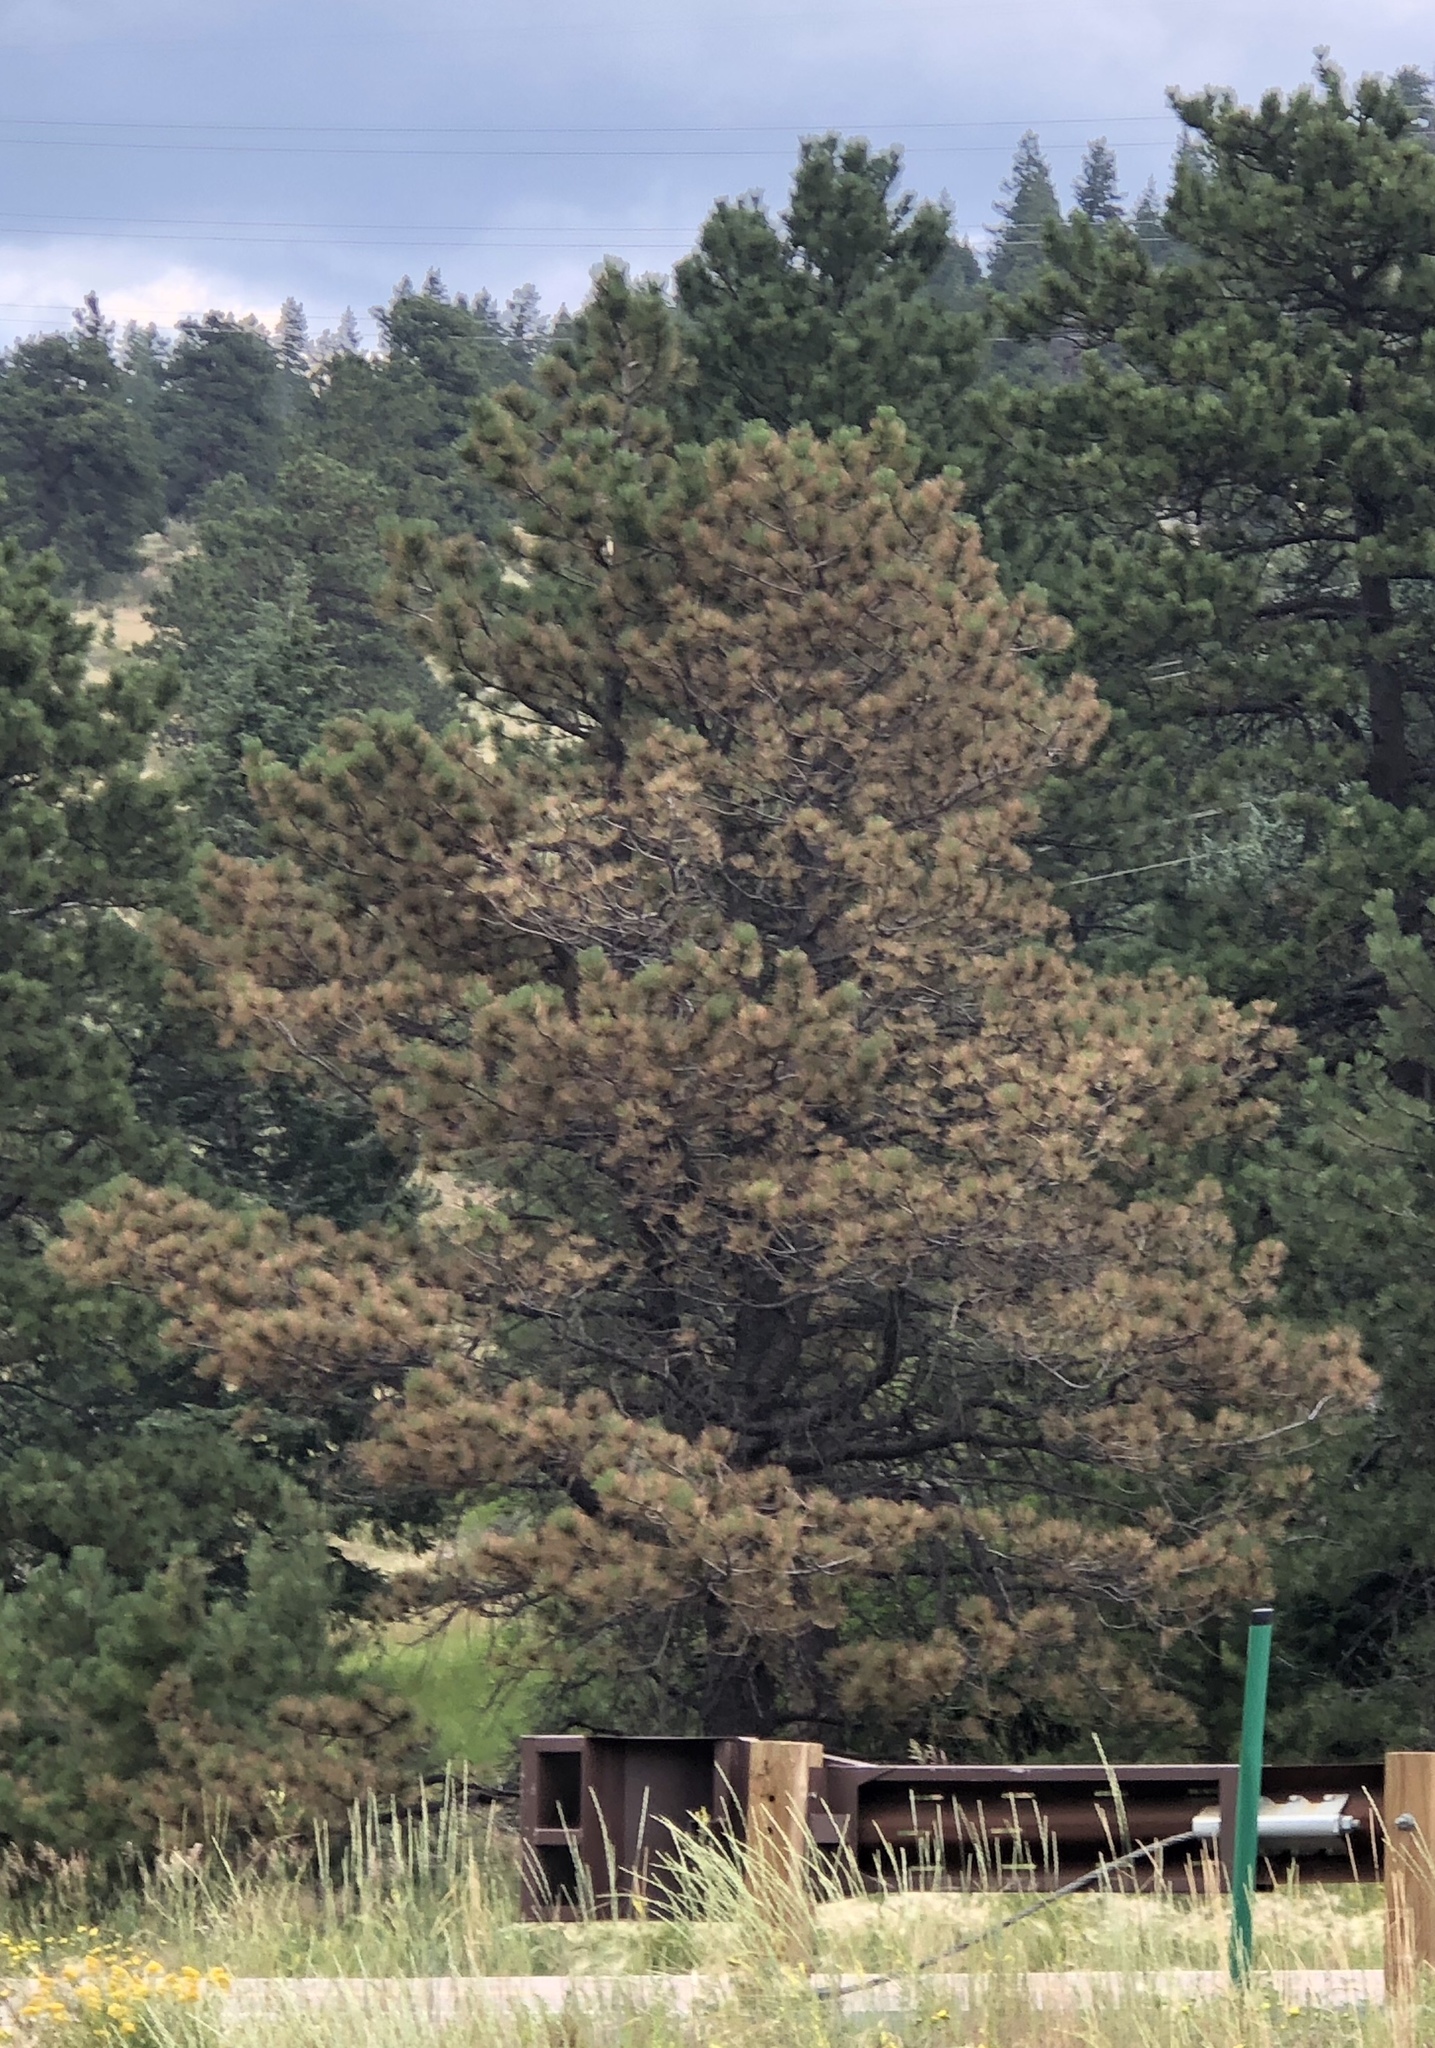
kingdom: Plantae
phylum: Tracheophyta
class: Pinopsida
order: Pinales
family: Pinaceae
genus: Pinus
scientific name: Pinus ponderosa
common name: Western yellow-pine
